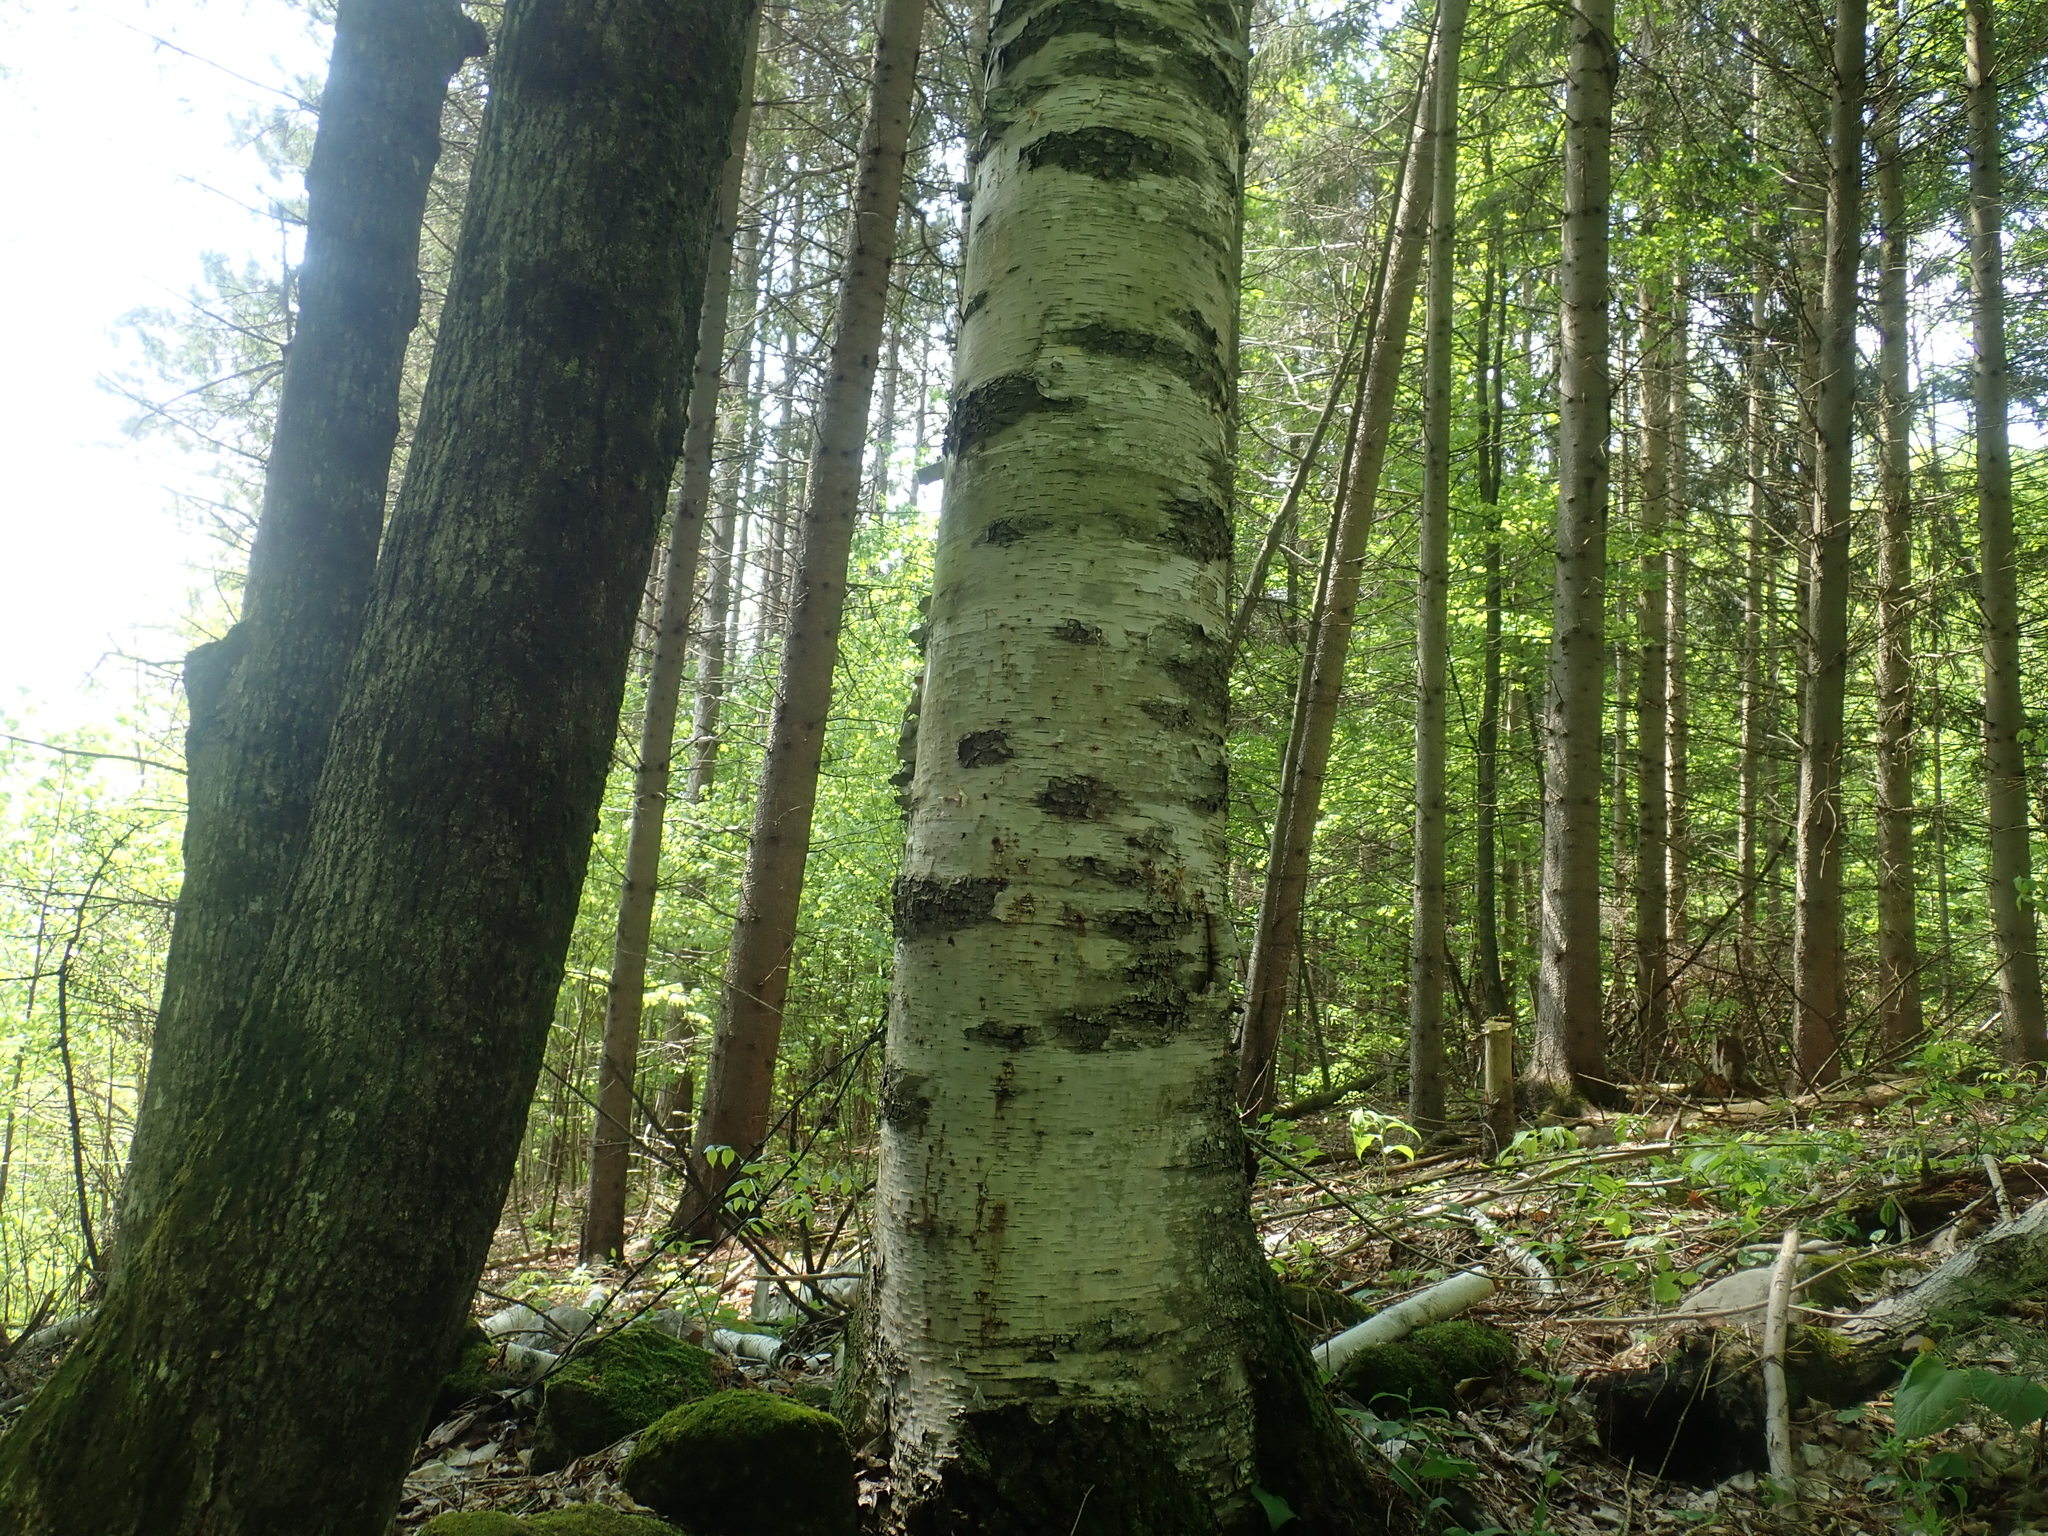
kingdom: Plantae
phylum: Tracheophyta
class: Magnoliopsida
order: Fagales
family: Betulaceae
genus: Betula
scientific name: Betula papyrifera
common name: Paper birch
